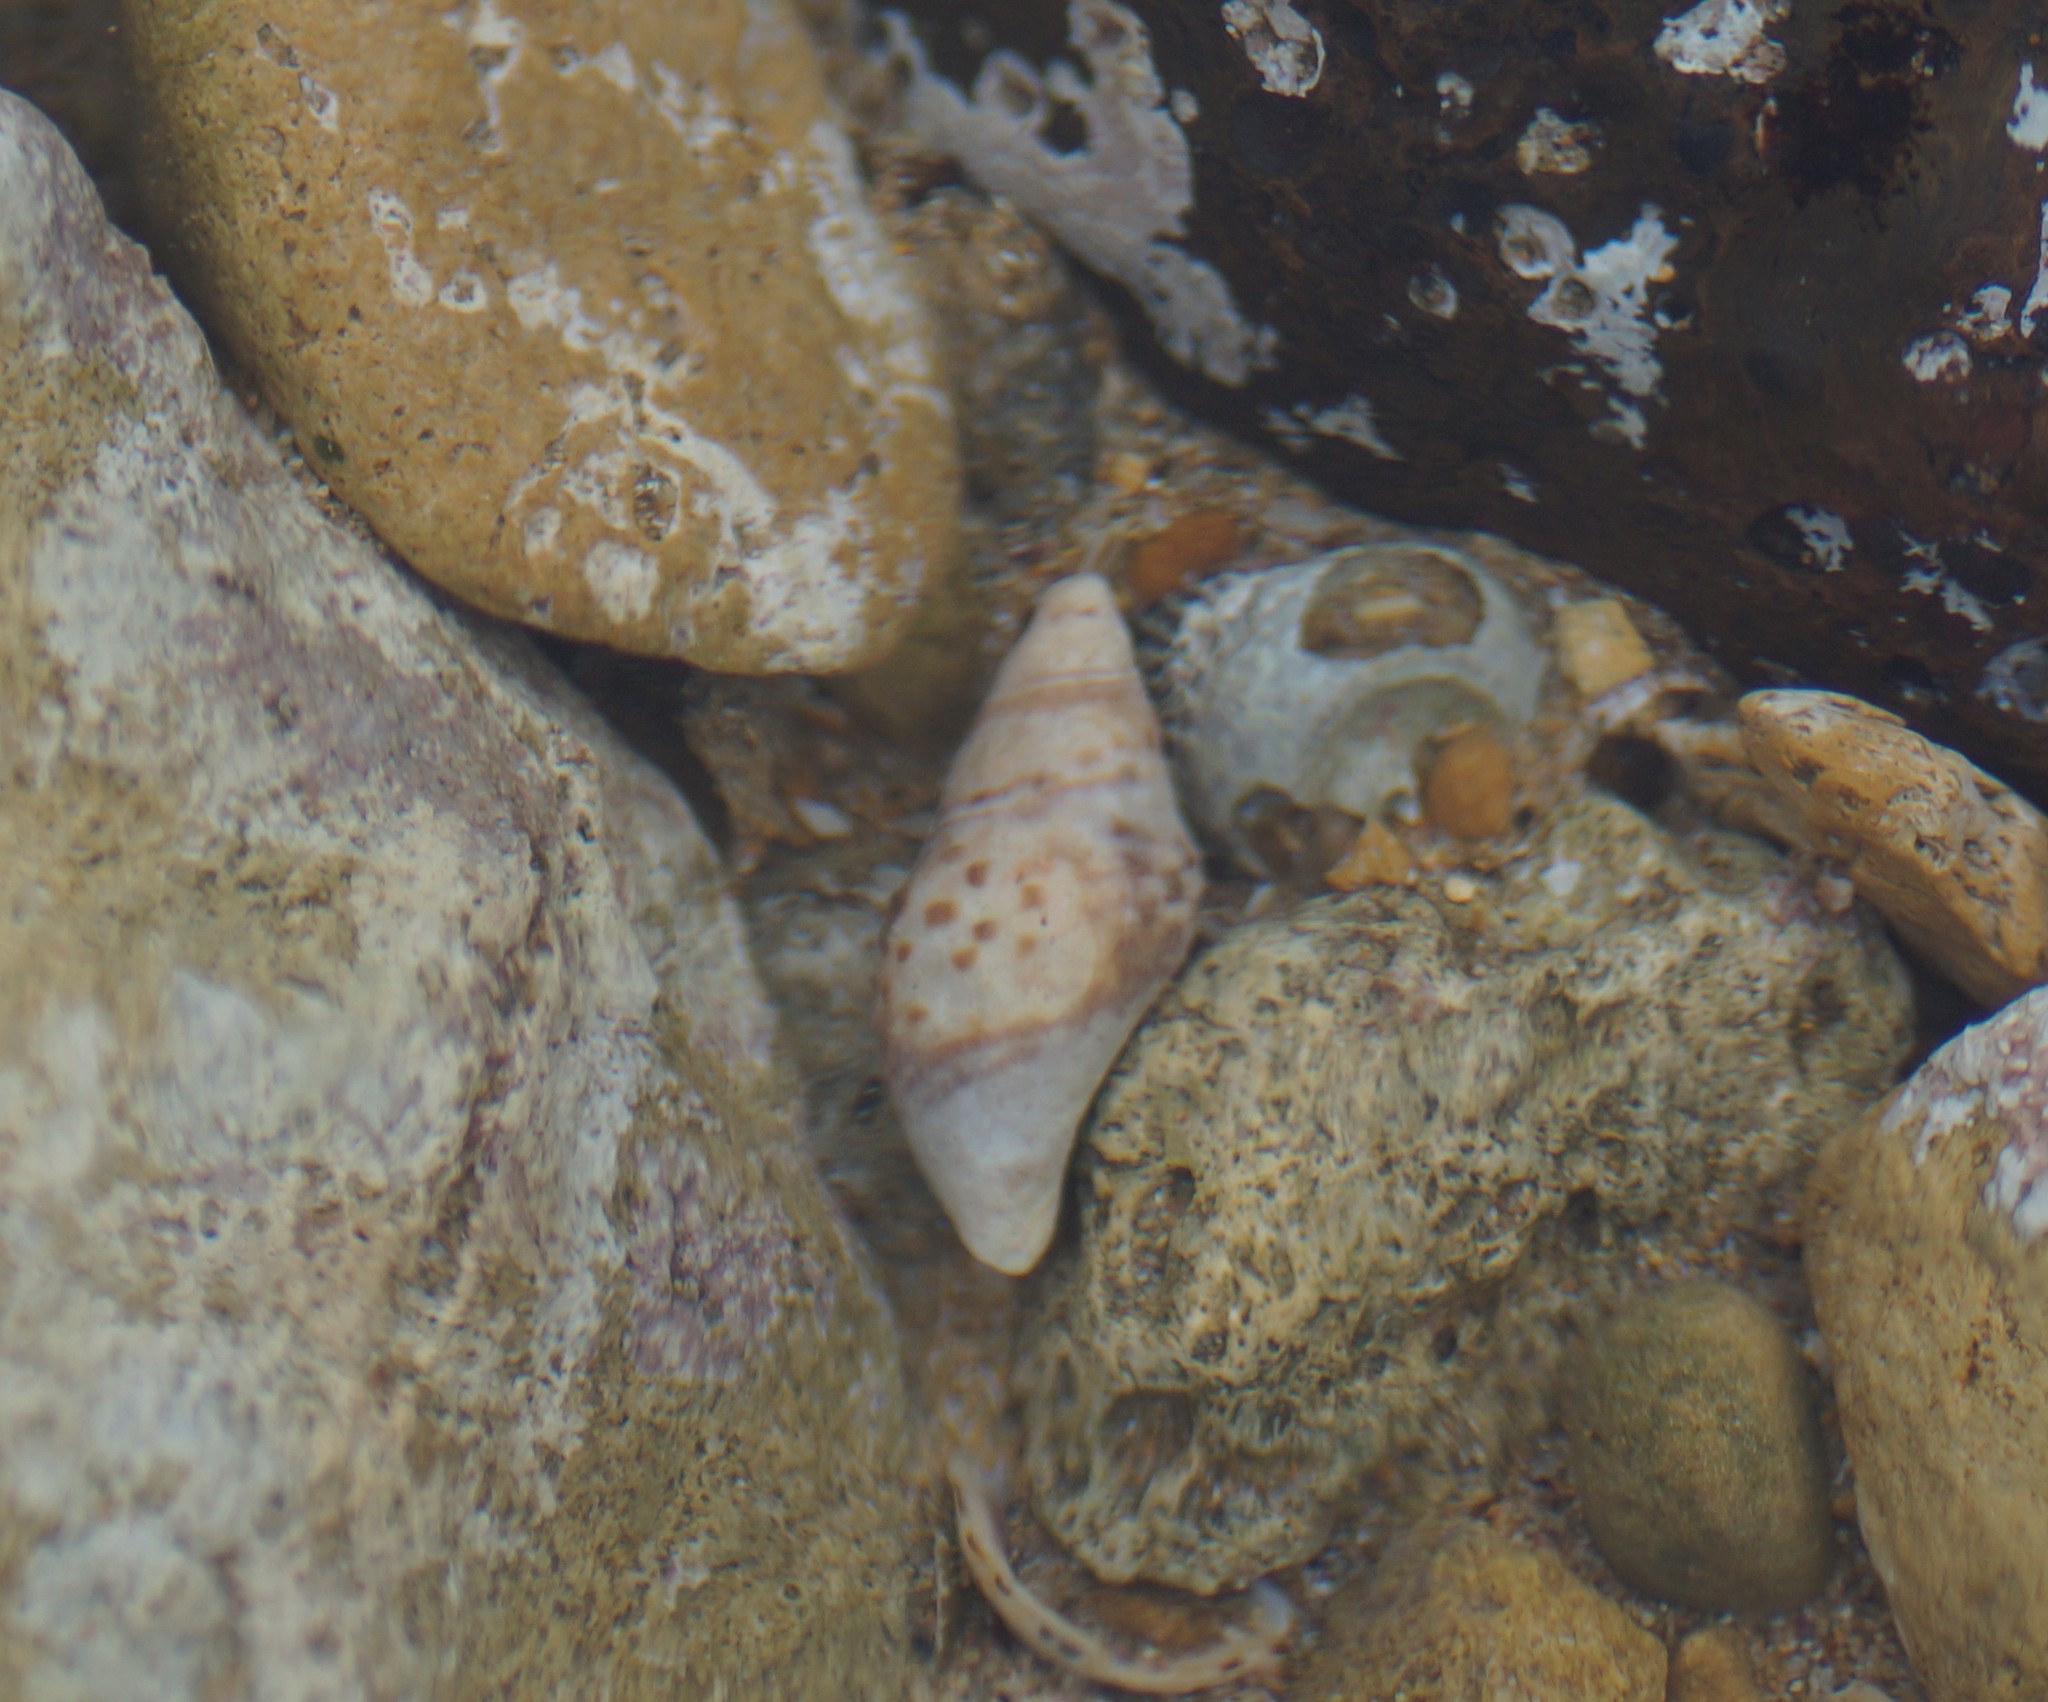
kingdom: Animalia
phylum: Mollusca
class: Gastropoda
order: Neogastropoda
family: Cominellidae
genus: Cominella
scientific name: Cominella lineolata
